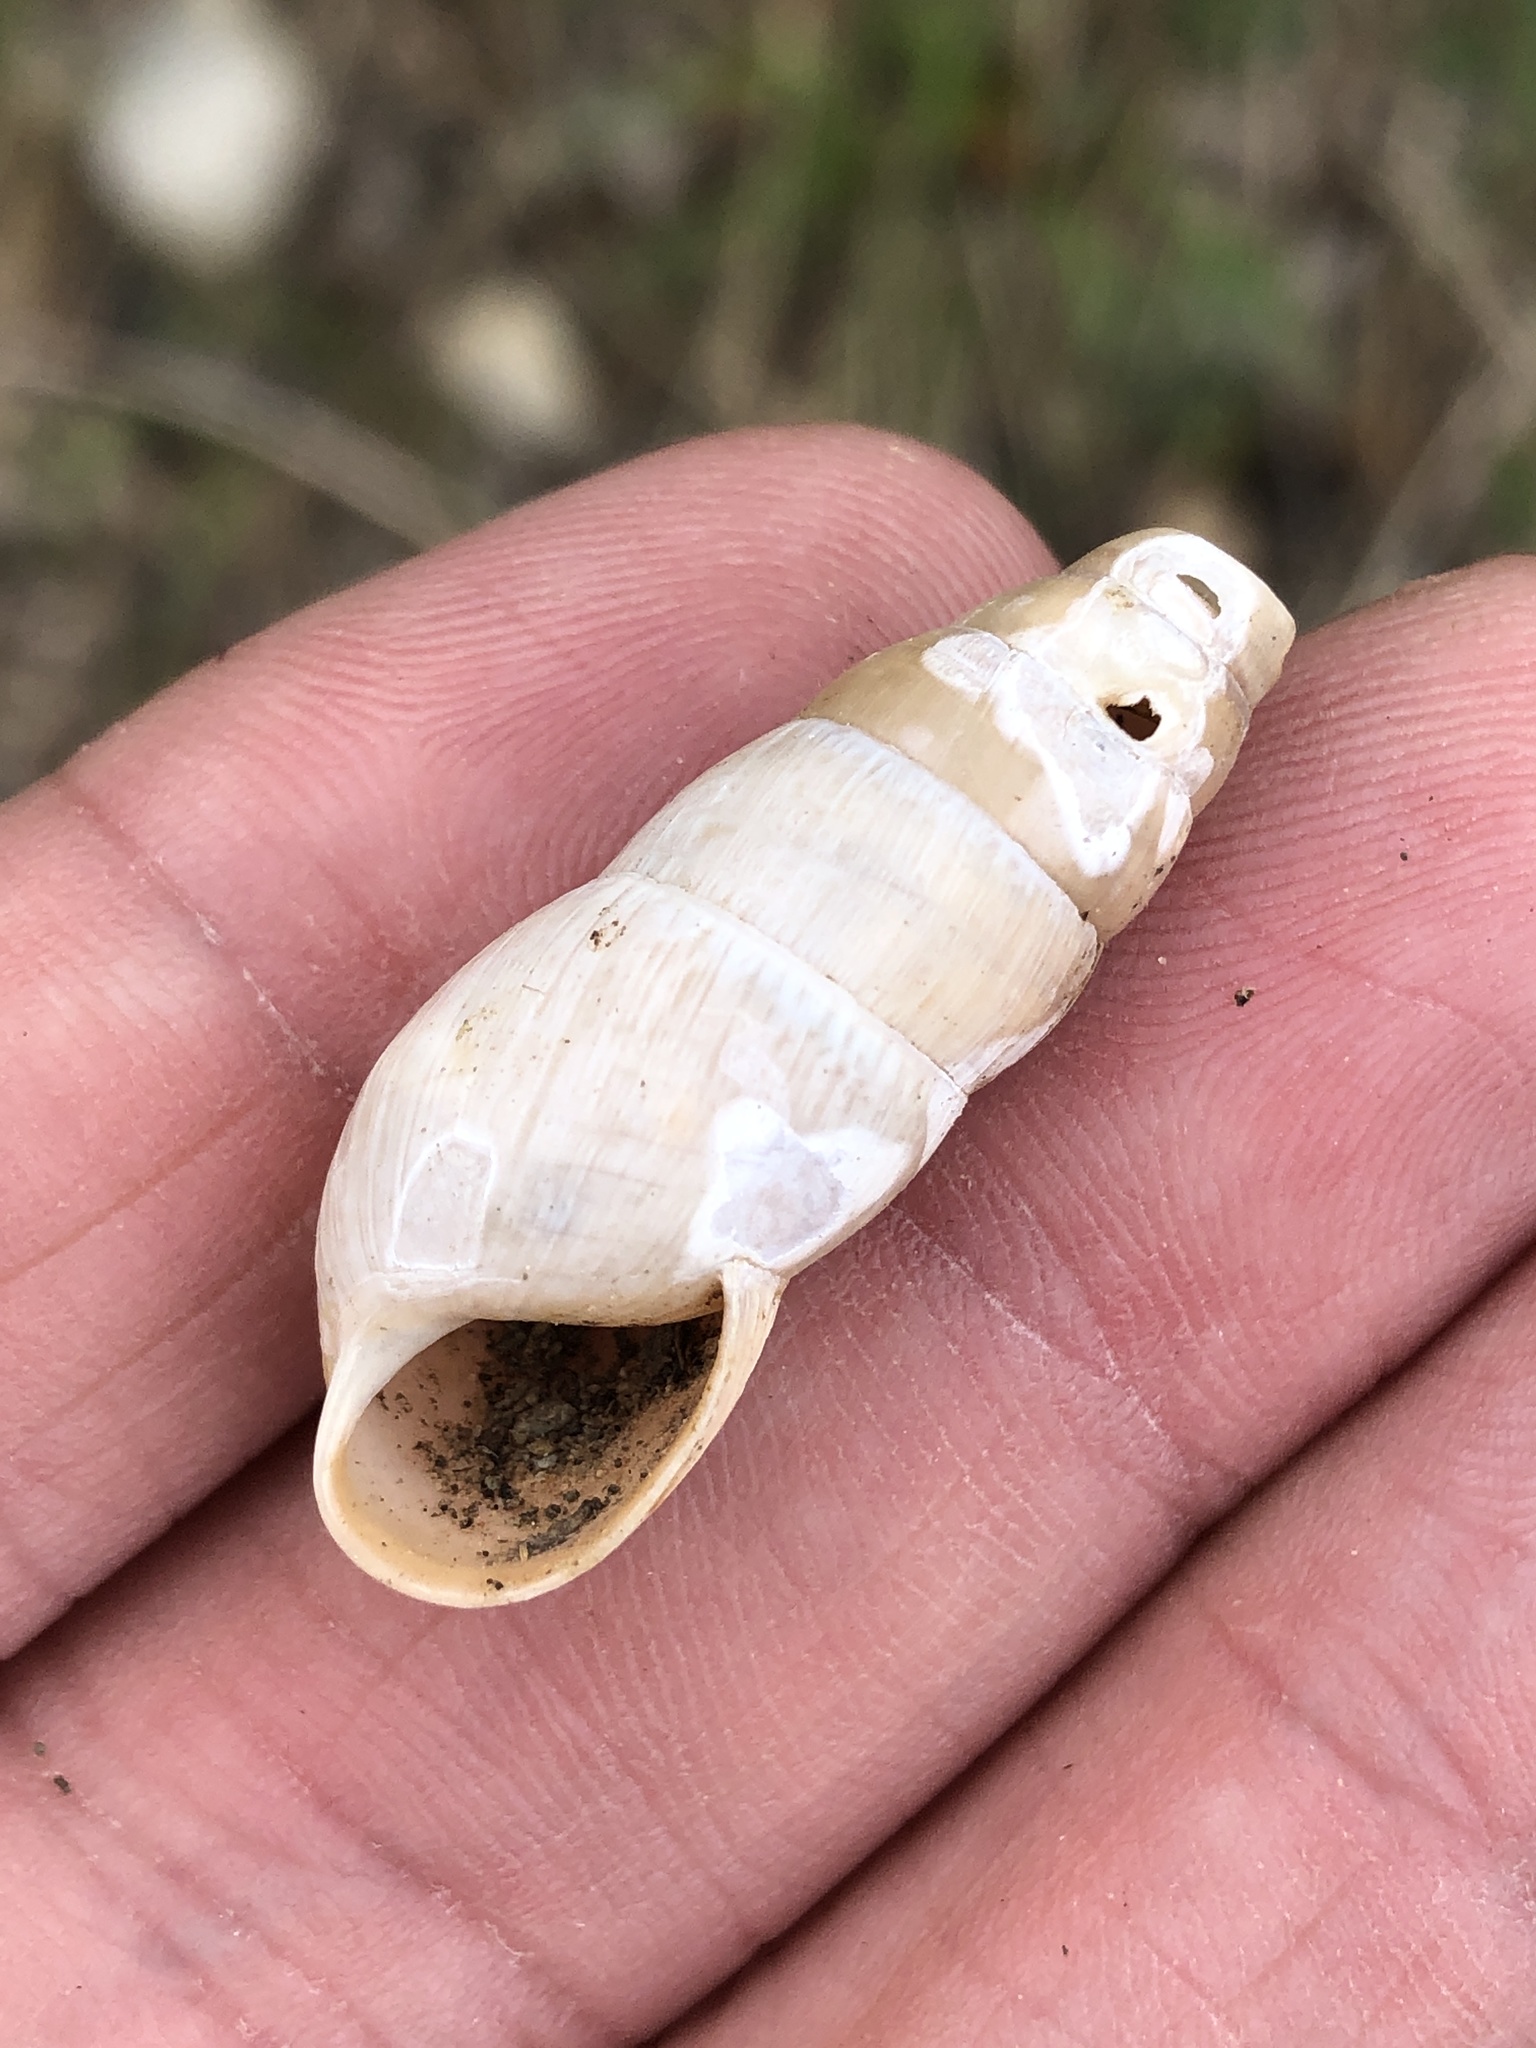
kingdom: Animalia
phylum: Mollusca
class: Gastropoda
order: Stylommatophora
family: Achatinidae
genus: Rumina
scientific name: Rumina decollata
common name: Decollate snail
